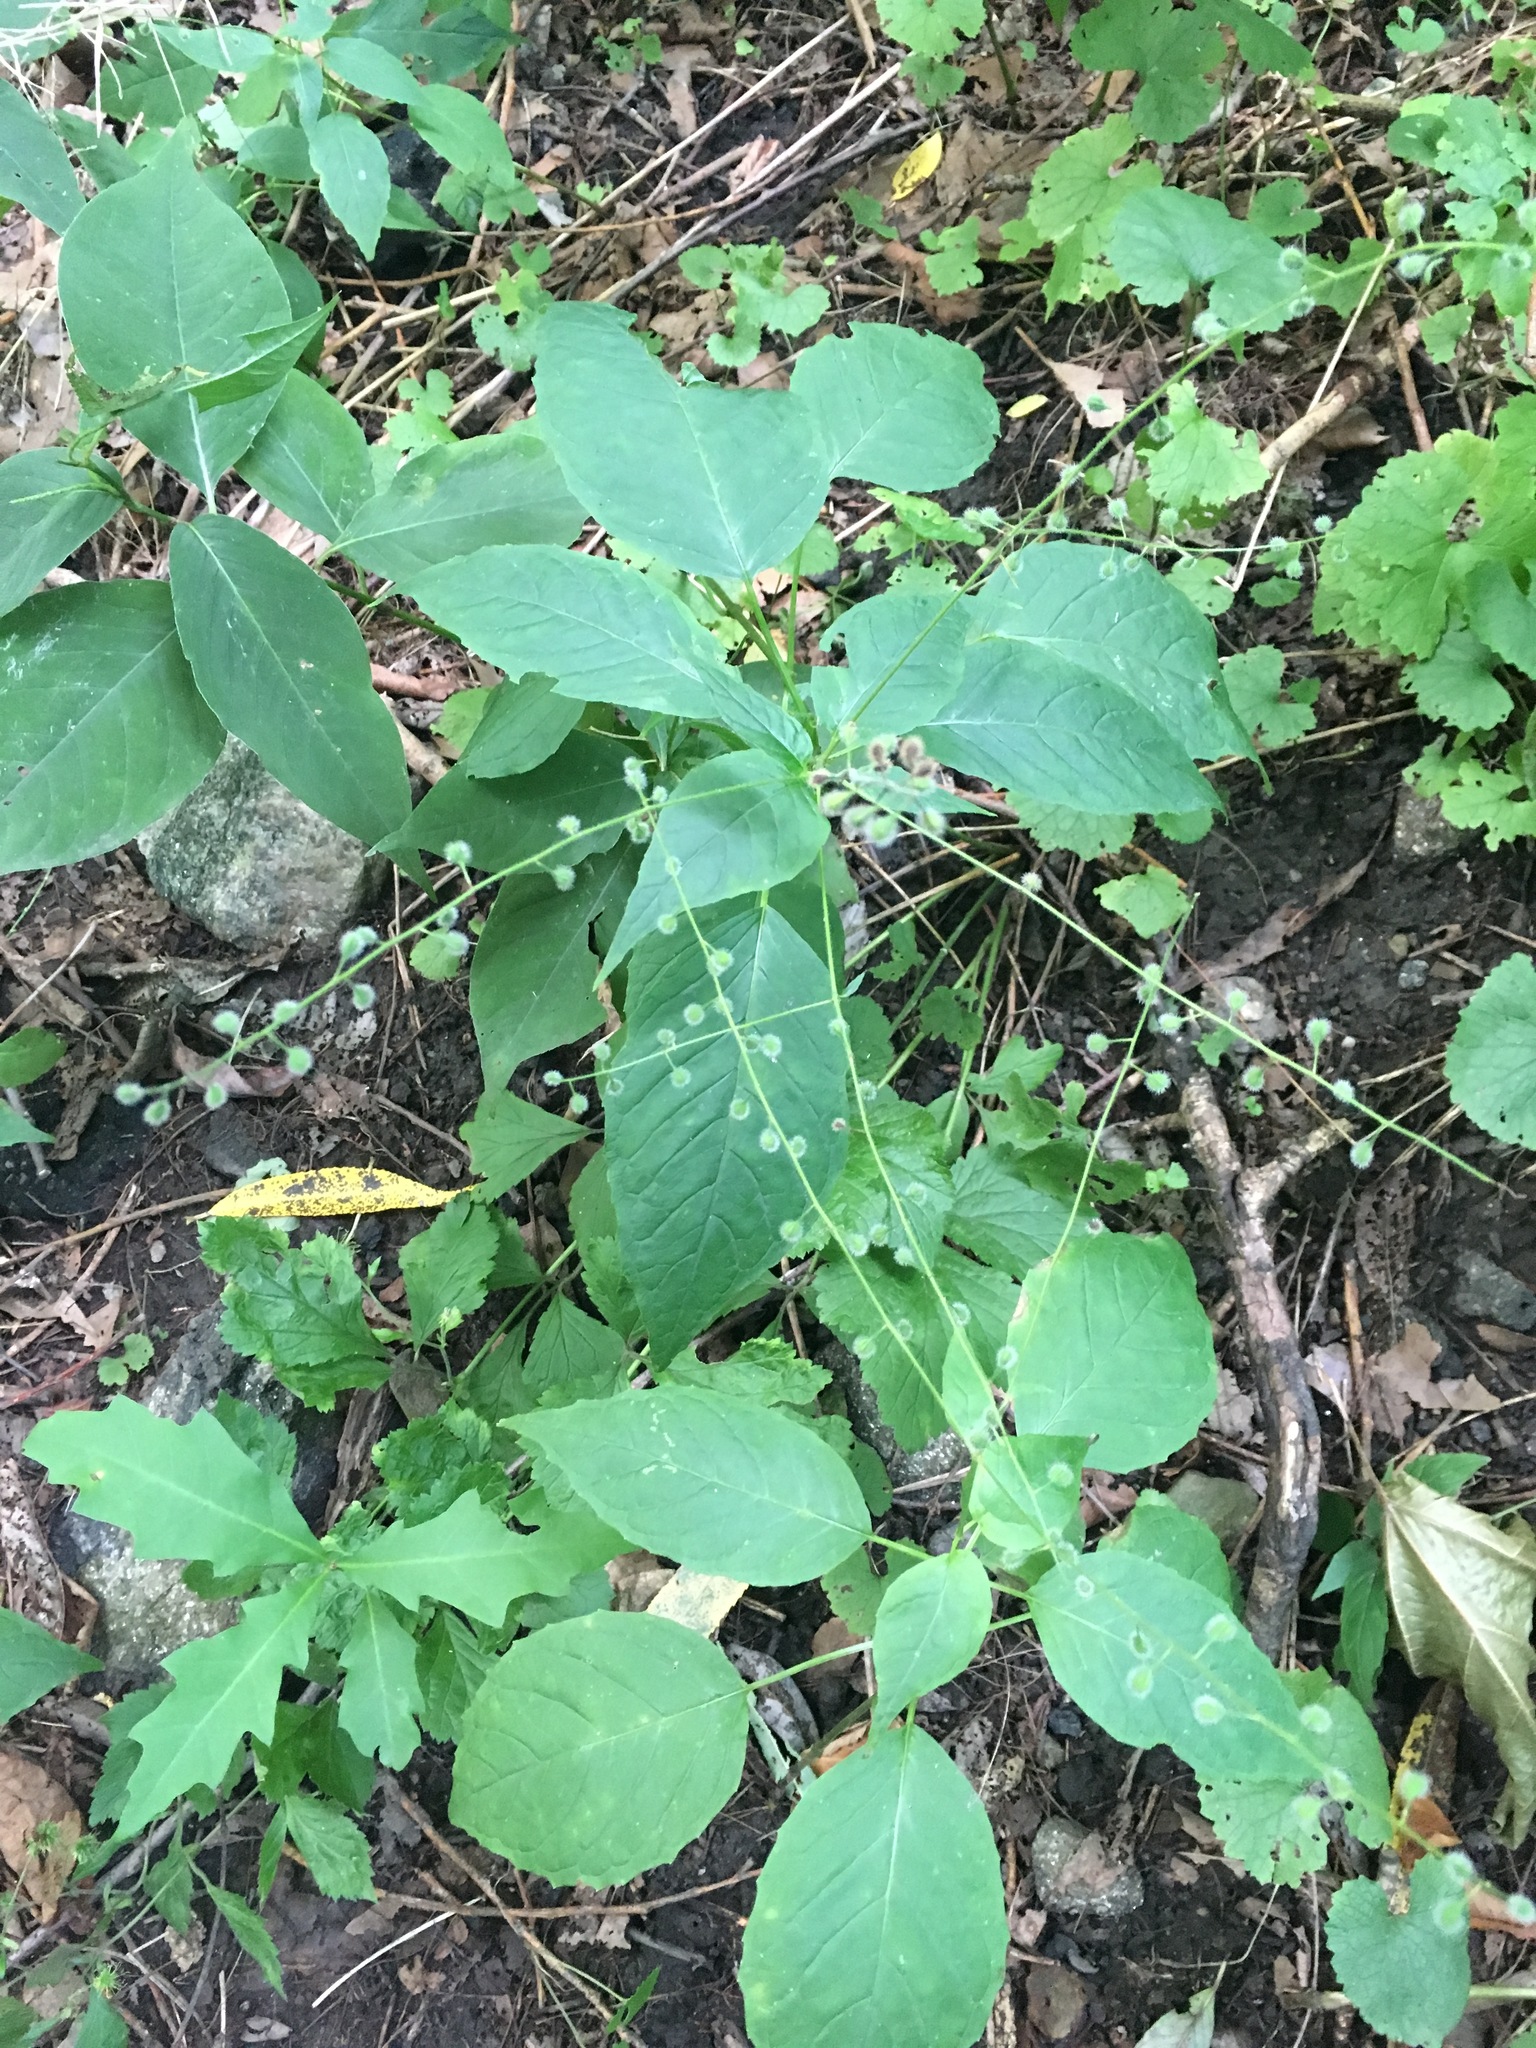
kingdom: Plantae
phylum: Tracheophyta
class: Magnoliopsida
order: Myrtales
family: Onagraceae
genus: Circaea
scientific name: Circaea canadensis
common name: Broad-leaved enchanter's nightshade
